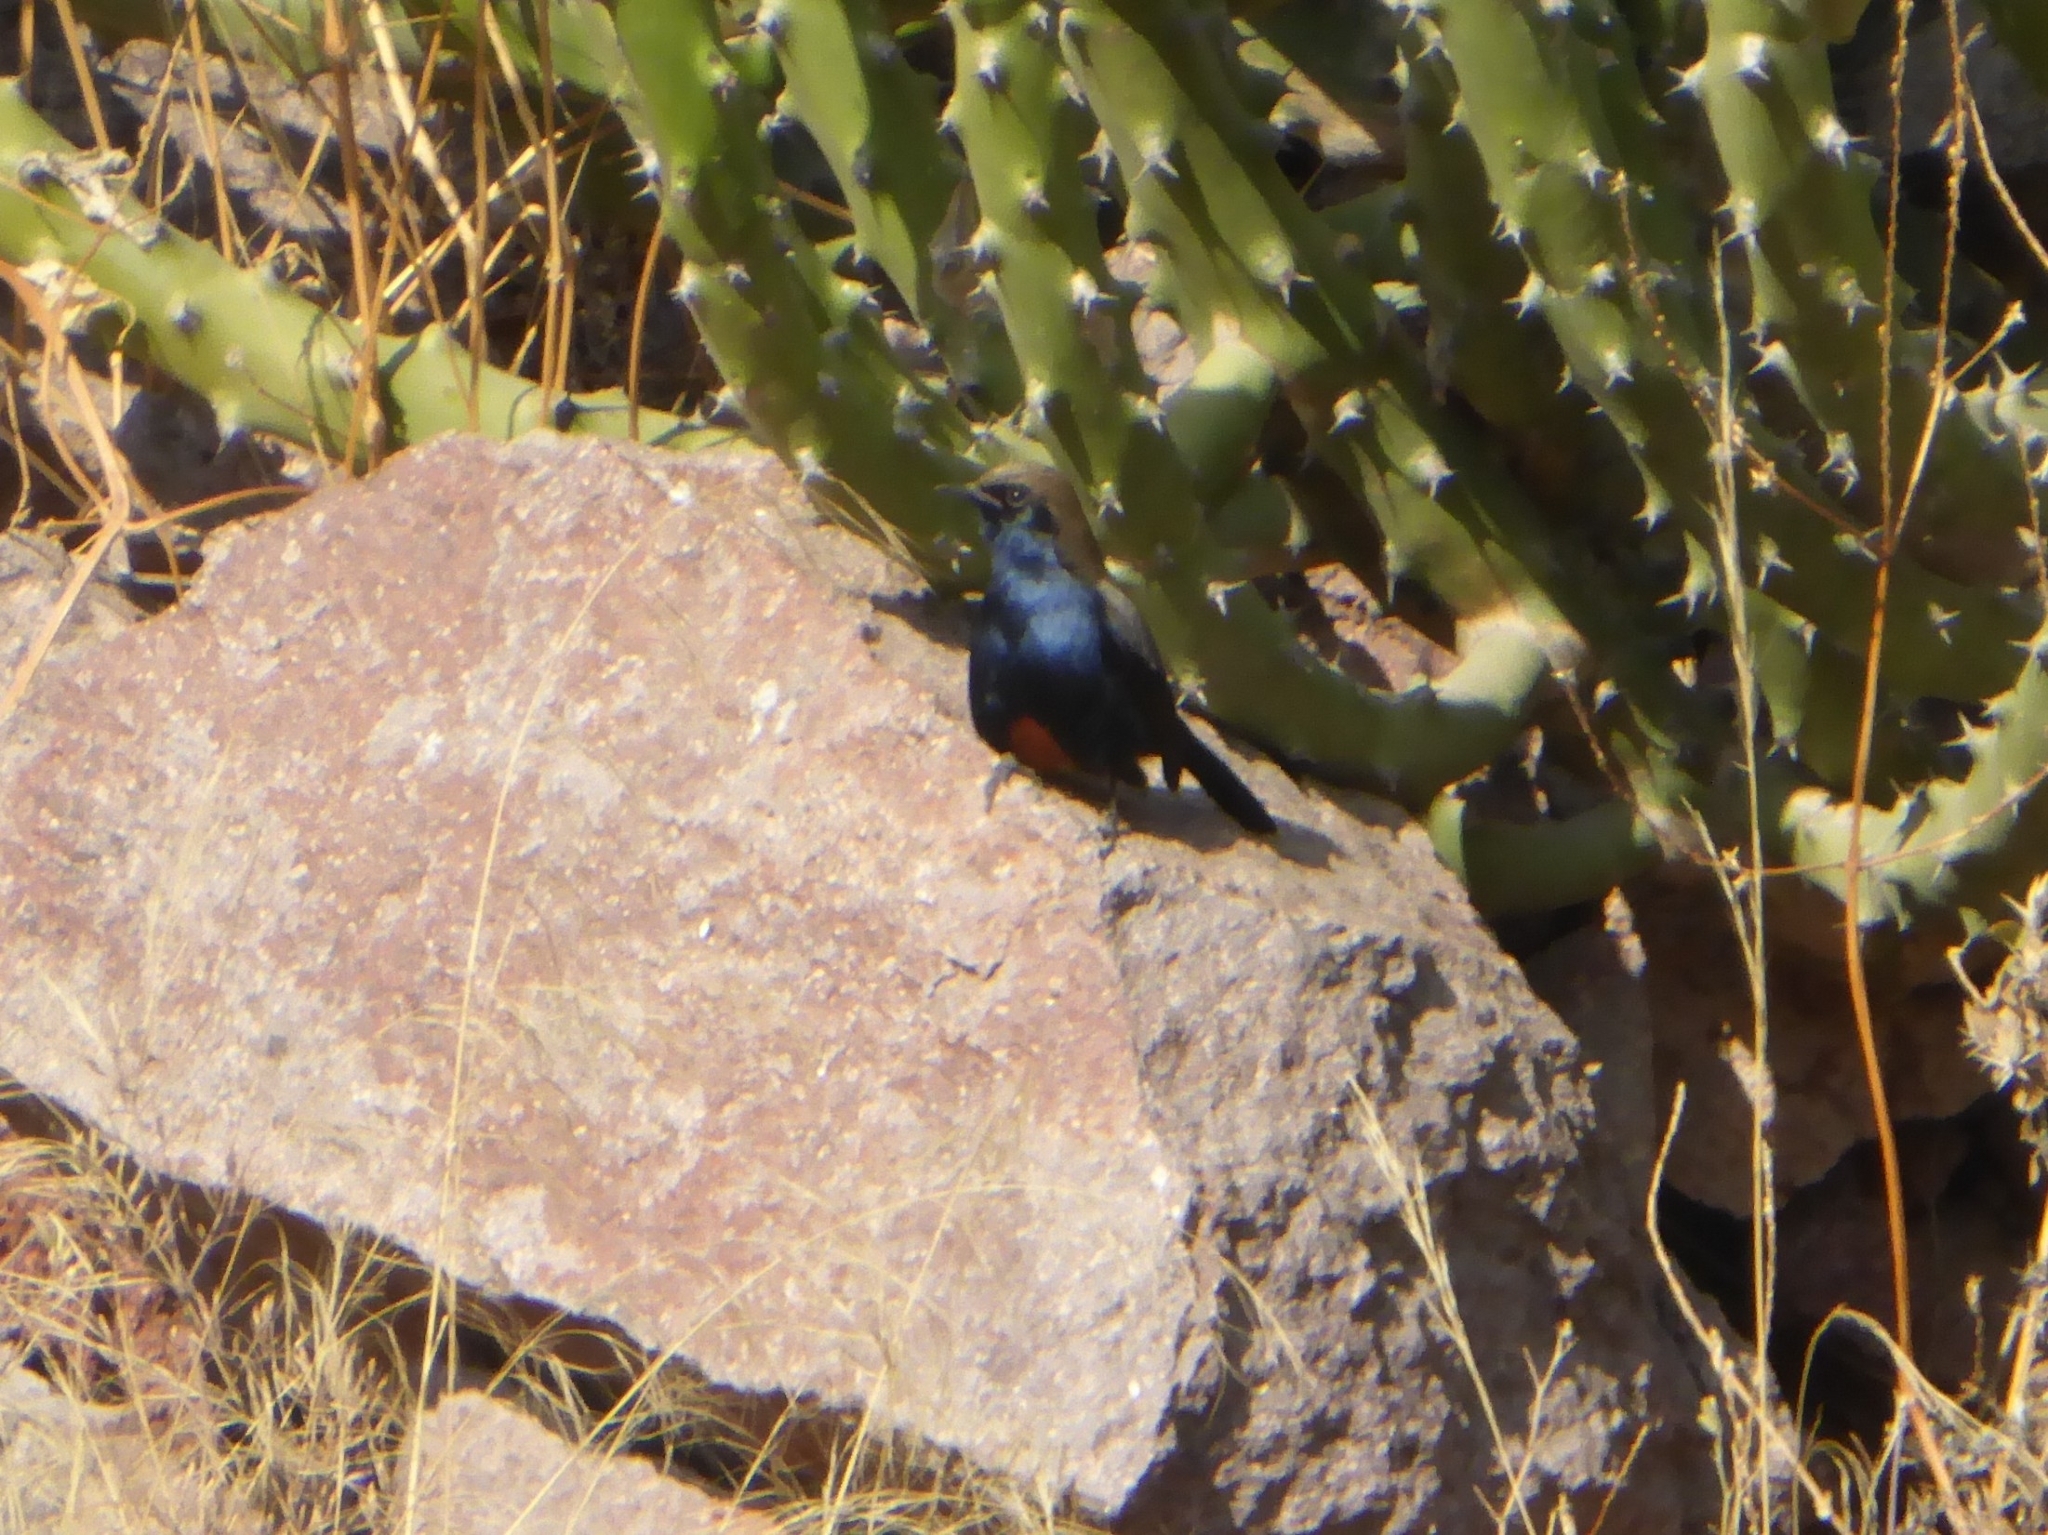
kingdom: Animalia
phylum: Chordata
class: Aves
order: Passeriformes
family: Muscicapidae
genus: Saxicoloides
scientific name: Saxicoloides fulicatus
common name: Indian robin
